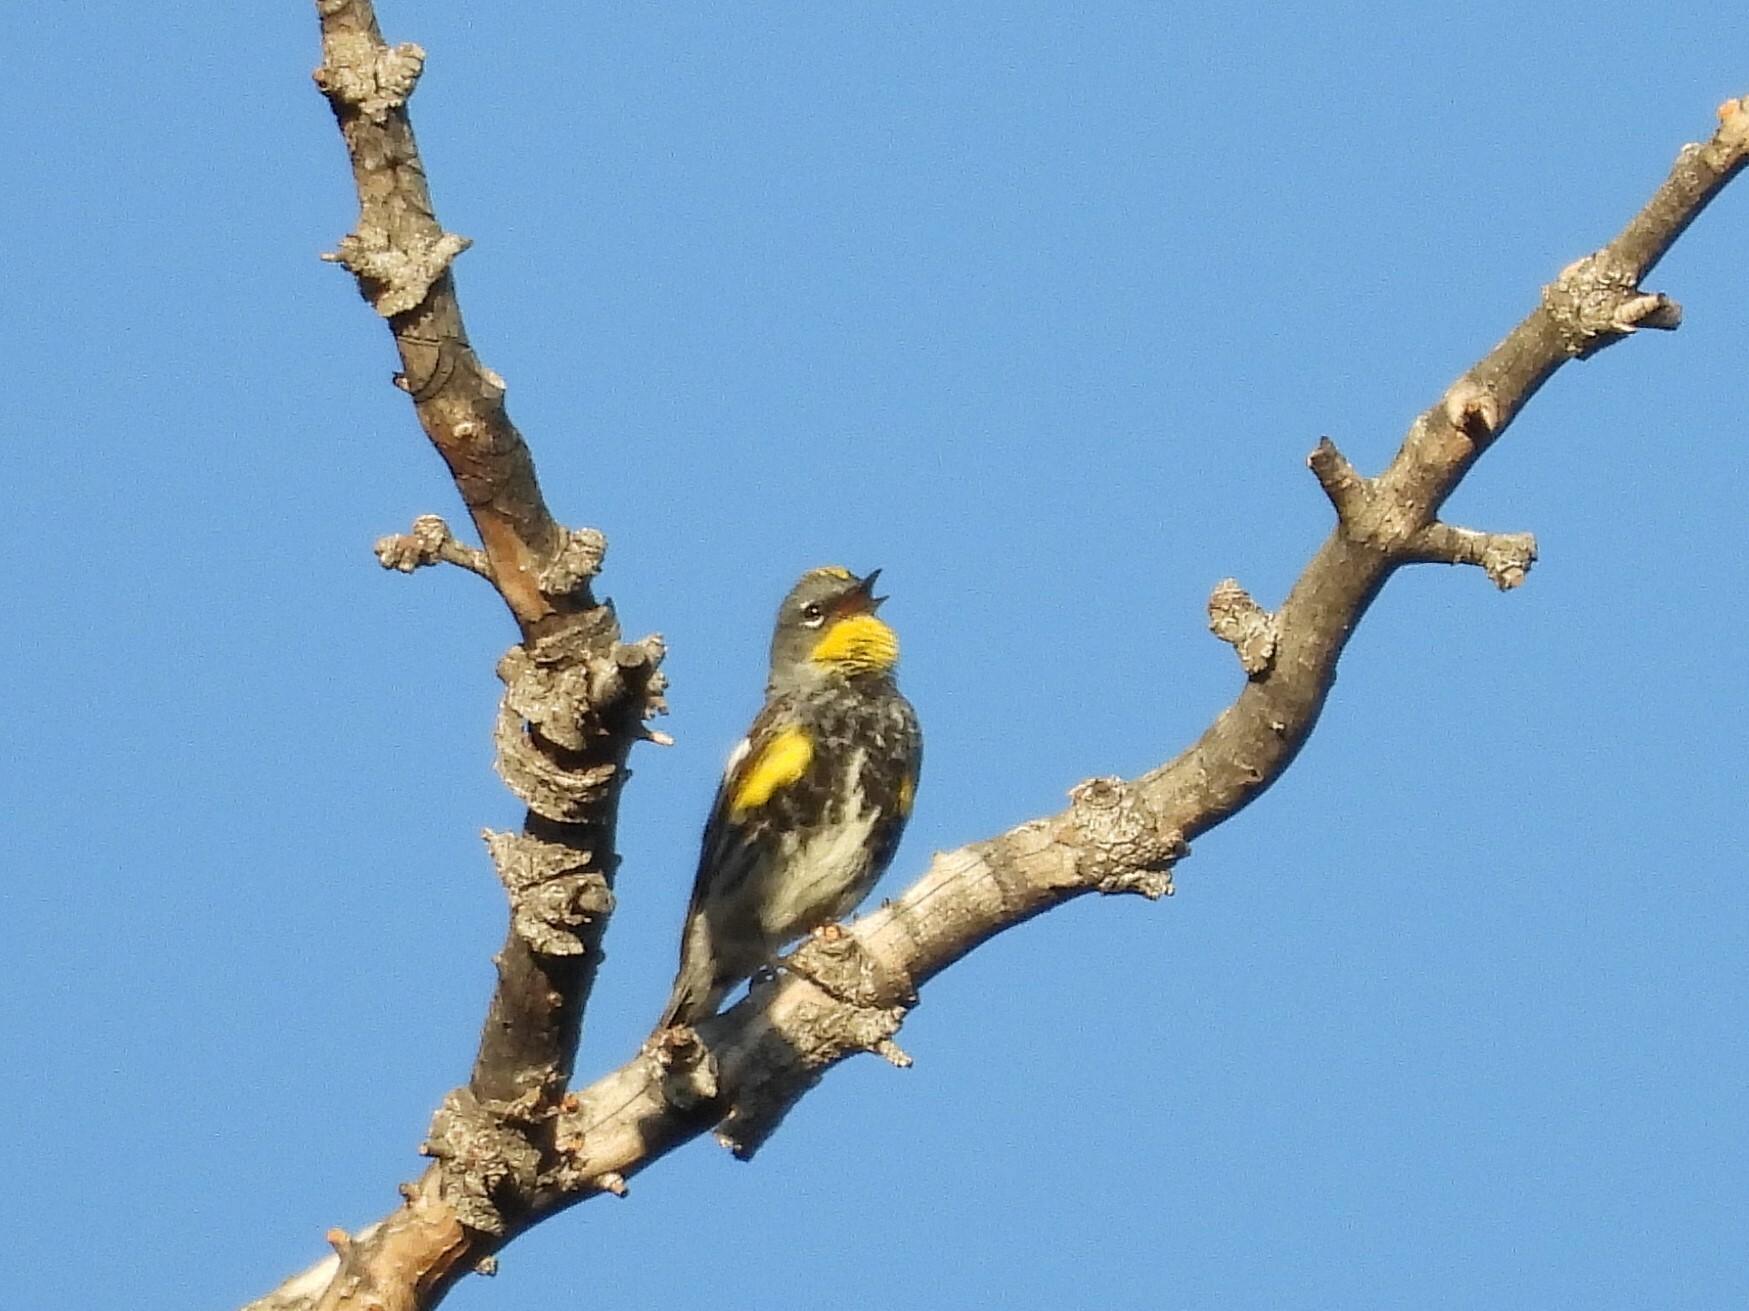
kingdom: Animalia
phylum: Chordata
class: Aves
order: Passeriformes
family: Parulidae
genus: Setophaga
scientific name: Setophaga coronata
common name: Myrtle warbler
